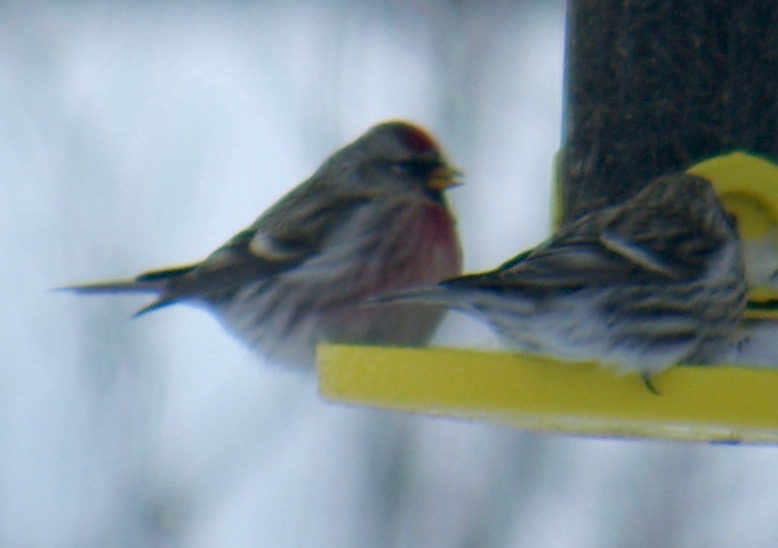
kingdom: Animalia
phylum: Chordata
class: Aves
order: Passeriformes
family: Fringillidae
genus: Acanthis
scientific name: Acanthis flammea
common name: Common redpoll
